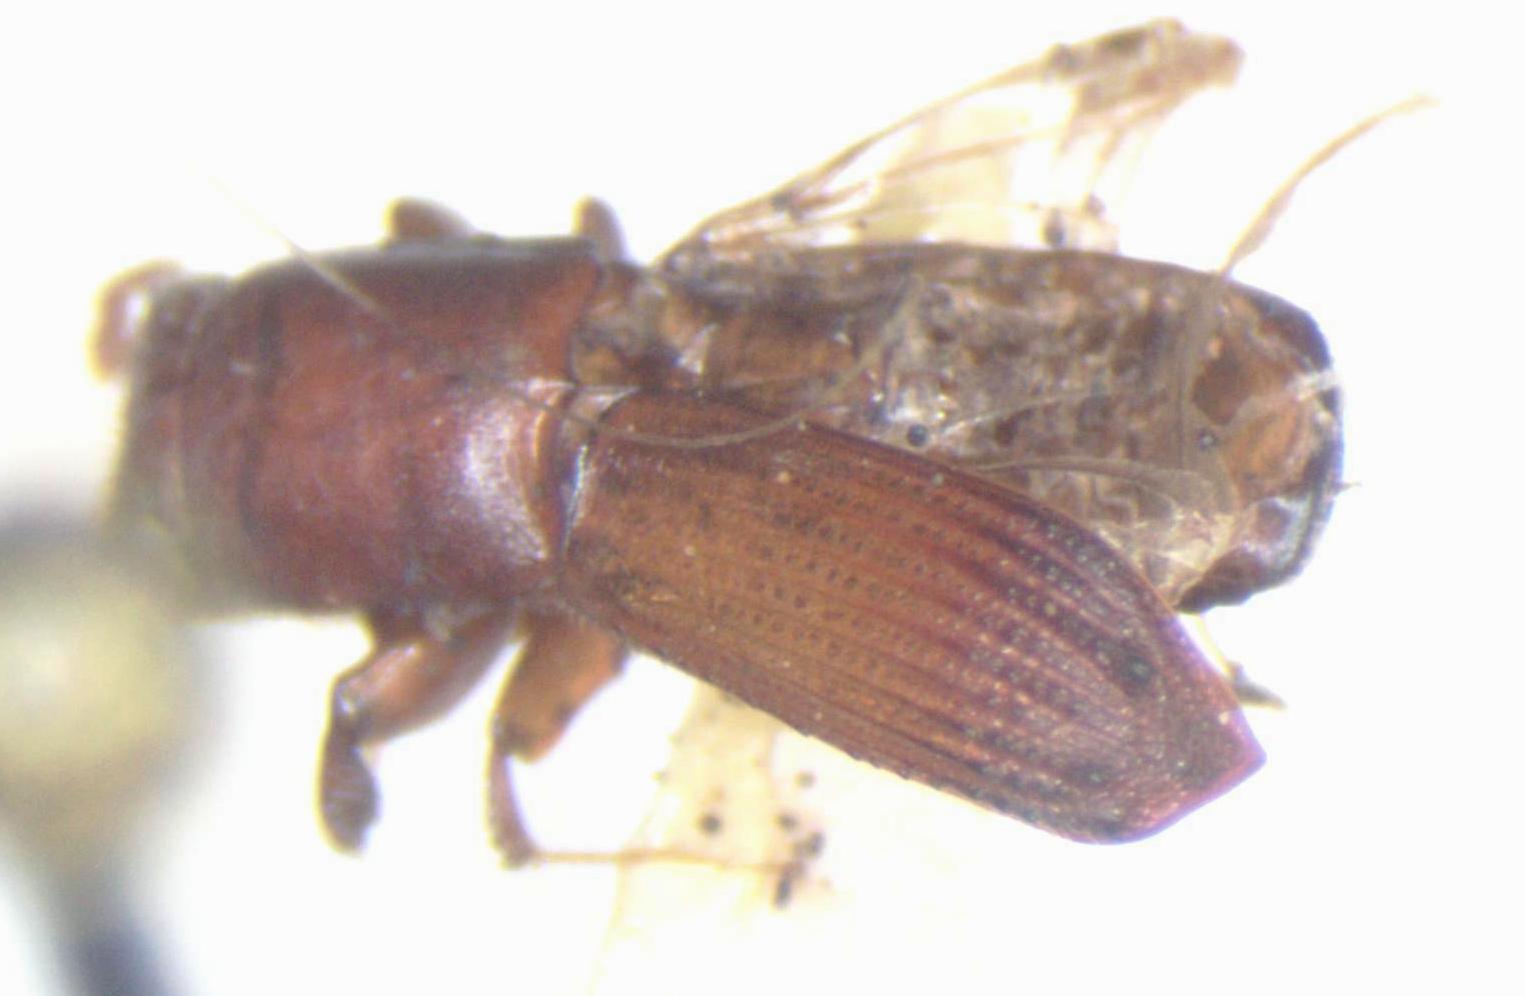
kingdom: Animalia
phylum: Arthropoda
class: Insecta
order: Coleoptera
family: Curculionidae
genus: Platyphysus
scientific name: Platyphysus obtusus
